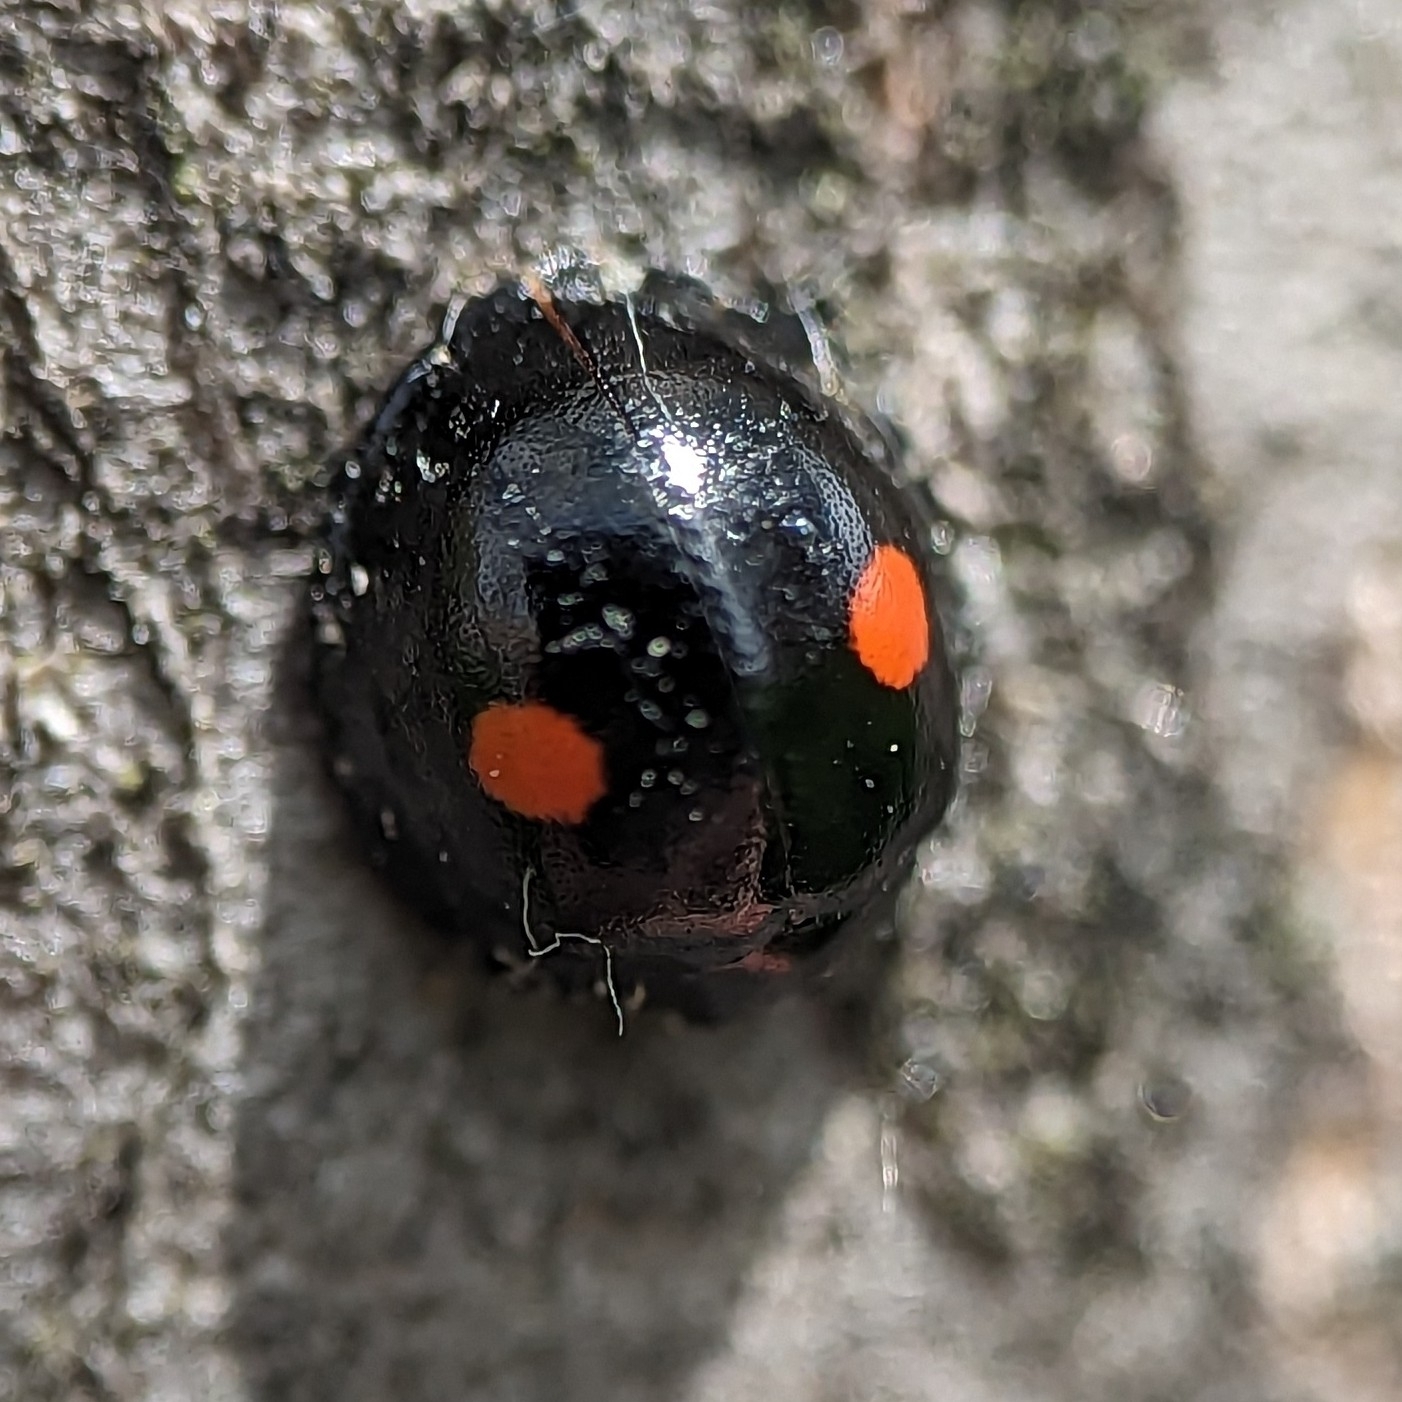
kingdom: Animalia
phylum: Arthropoda
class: Insecta
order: Coleoptera
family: Coccinellidae
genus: Chilocorus
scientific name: Chilocorus stigma
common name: Twicestabbed lady beetle
